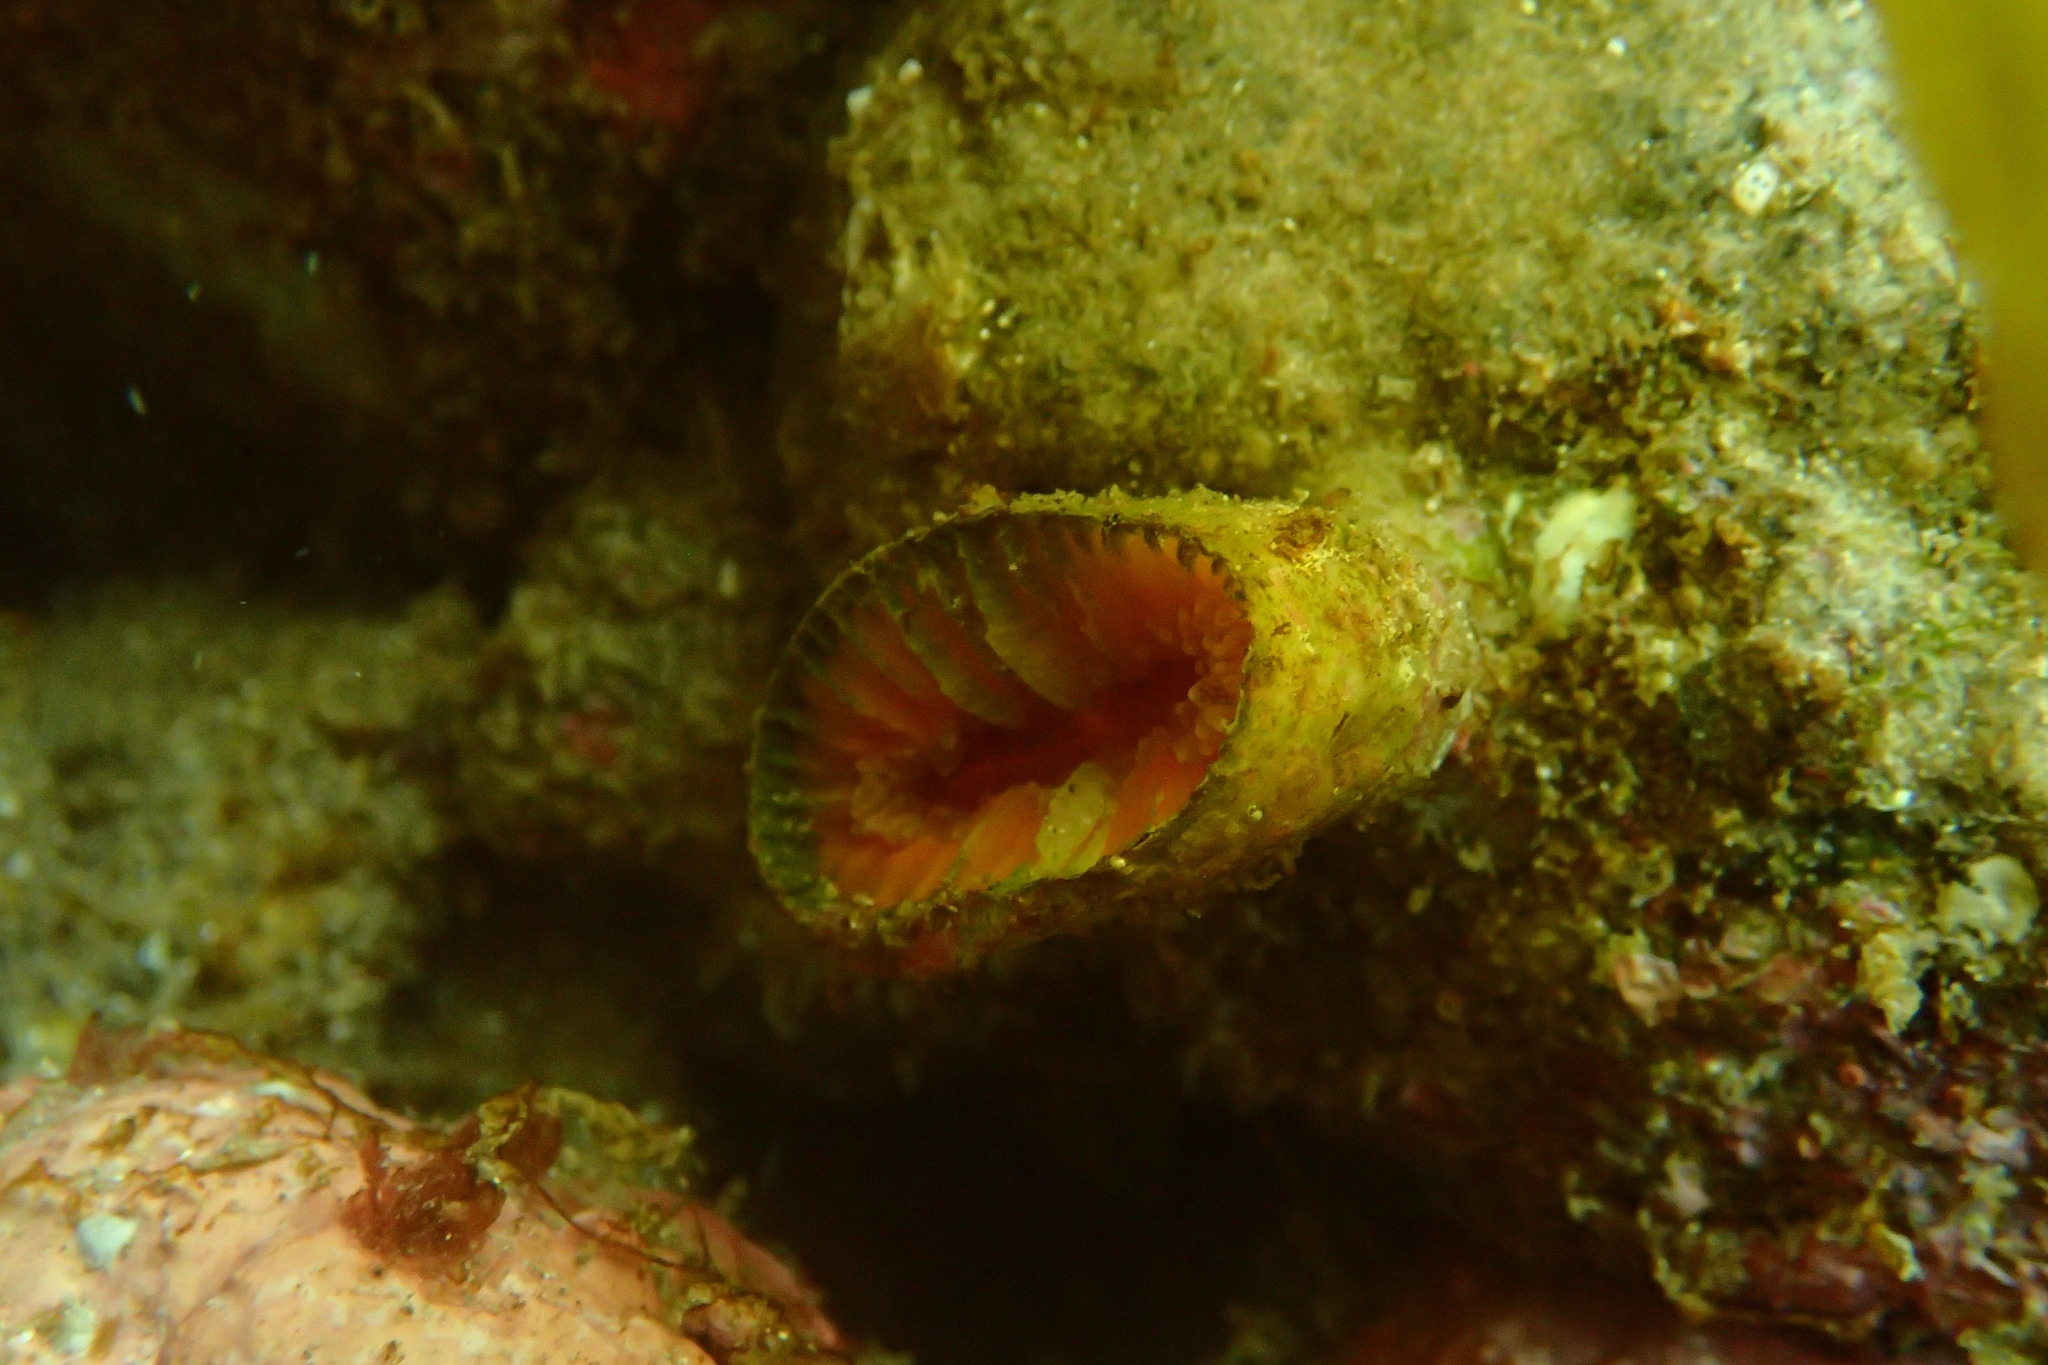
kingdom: Animalia
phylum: Cnidaria
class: Anthozoa
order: Scleractinia
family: Flabellidae
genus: Monomyces
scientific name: Monomyces rubrum
